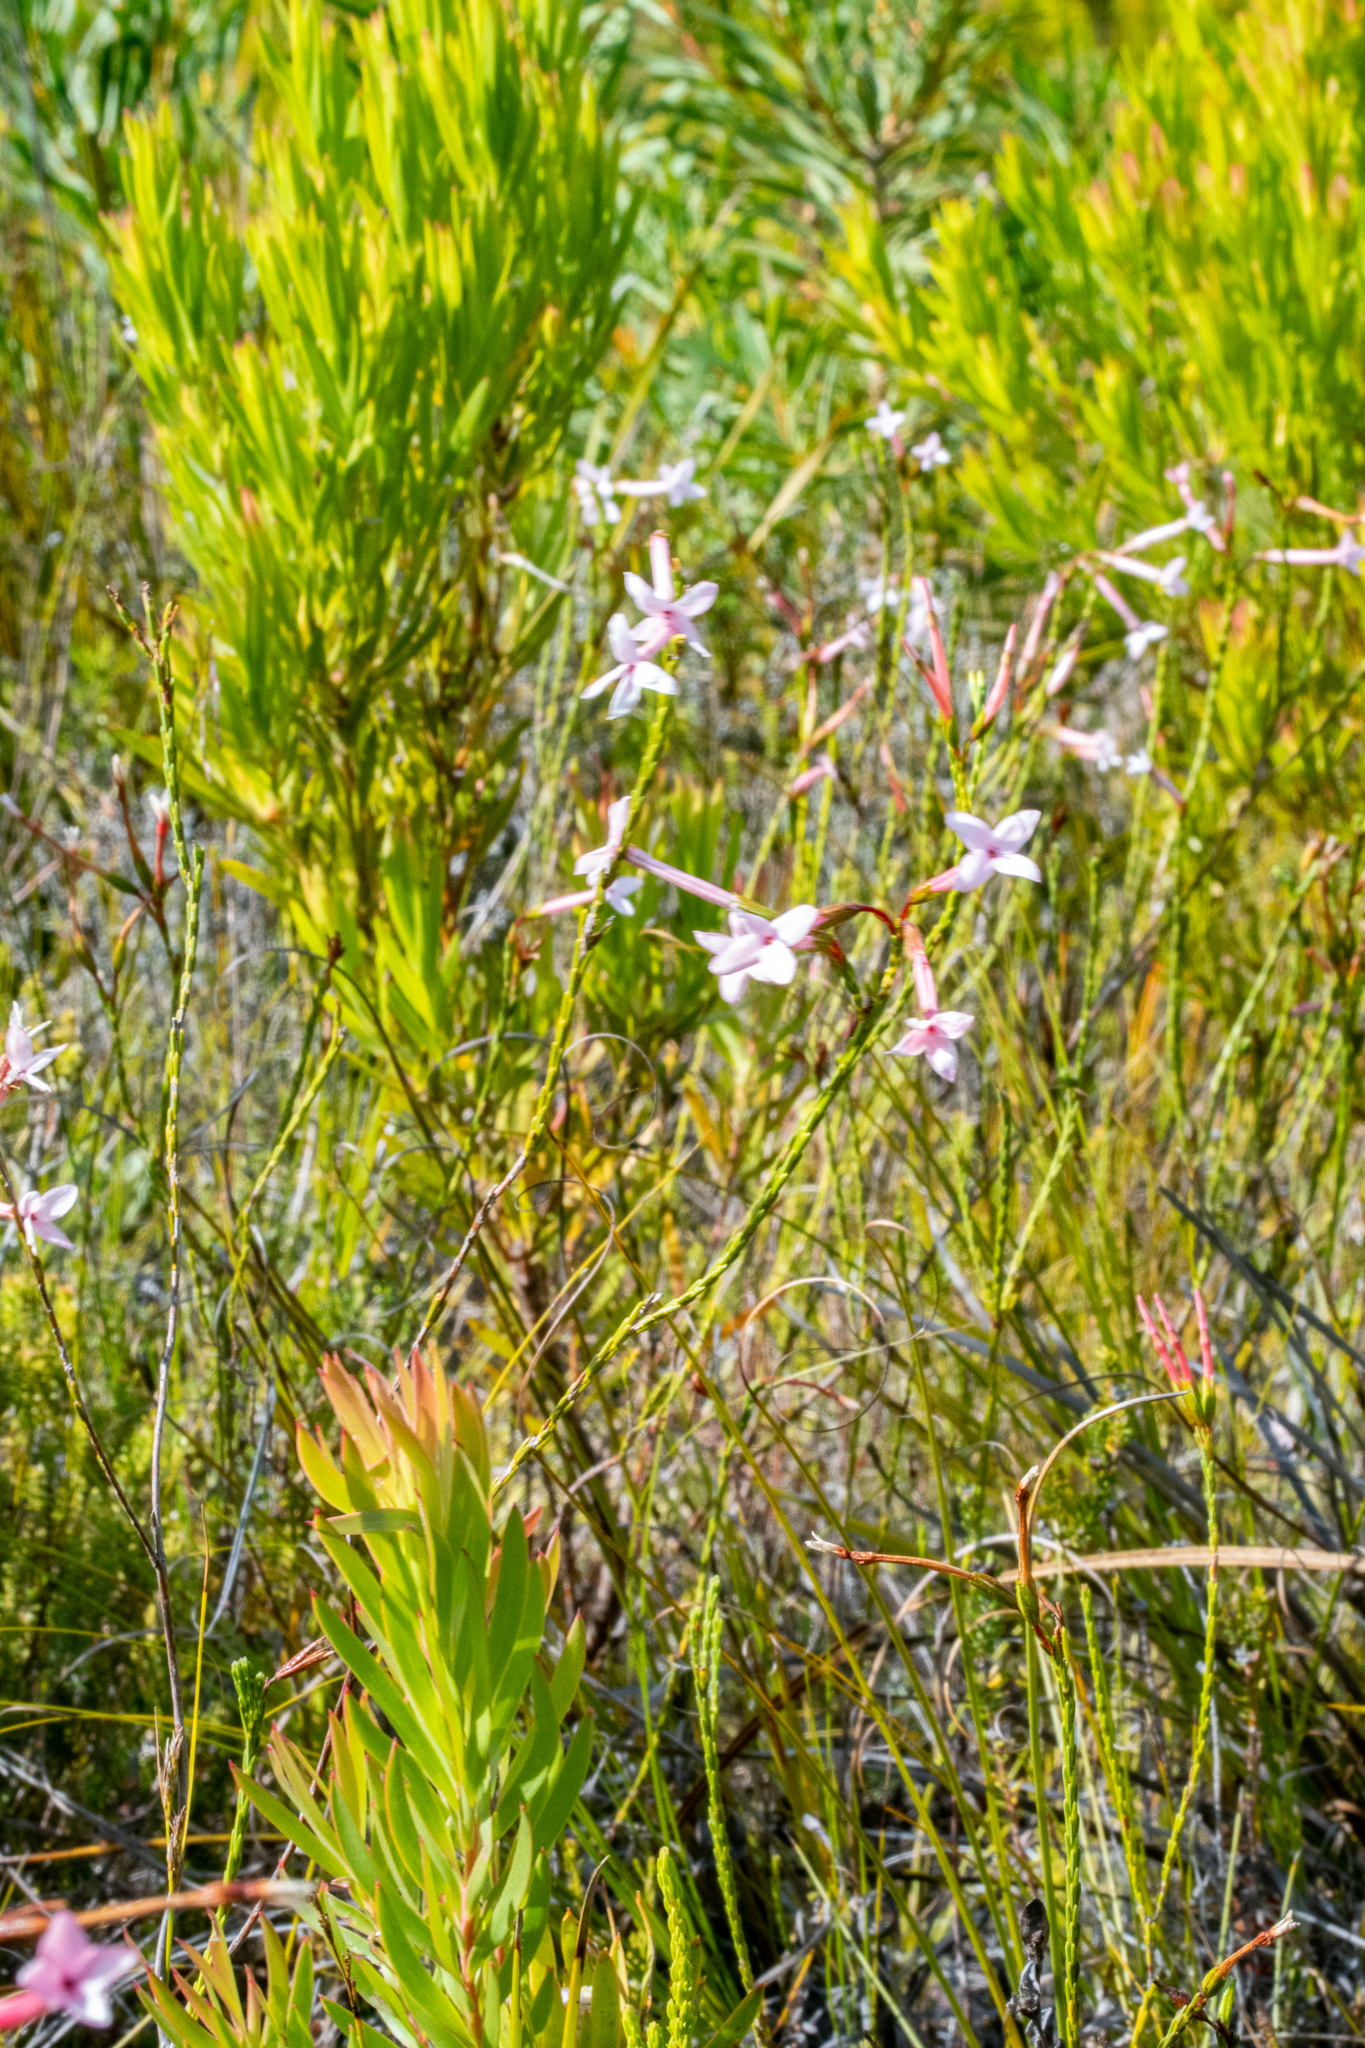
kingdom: Plantae
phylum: Tracheophyta
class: Magnoliopsida
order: Ericales
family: Ericaceae
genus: Erica
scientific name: Erica jasminiflora
